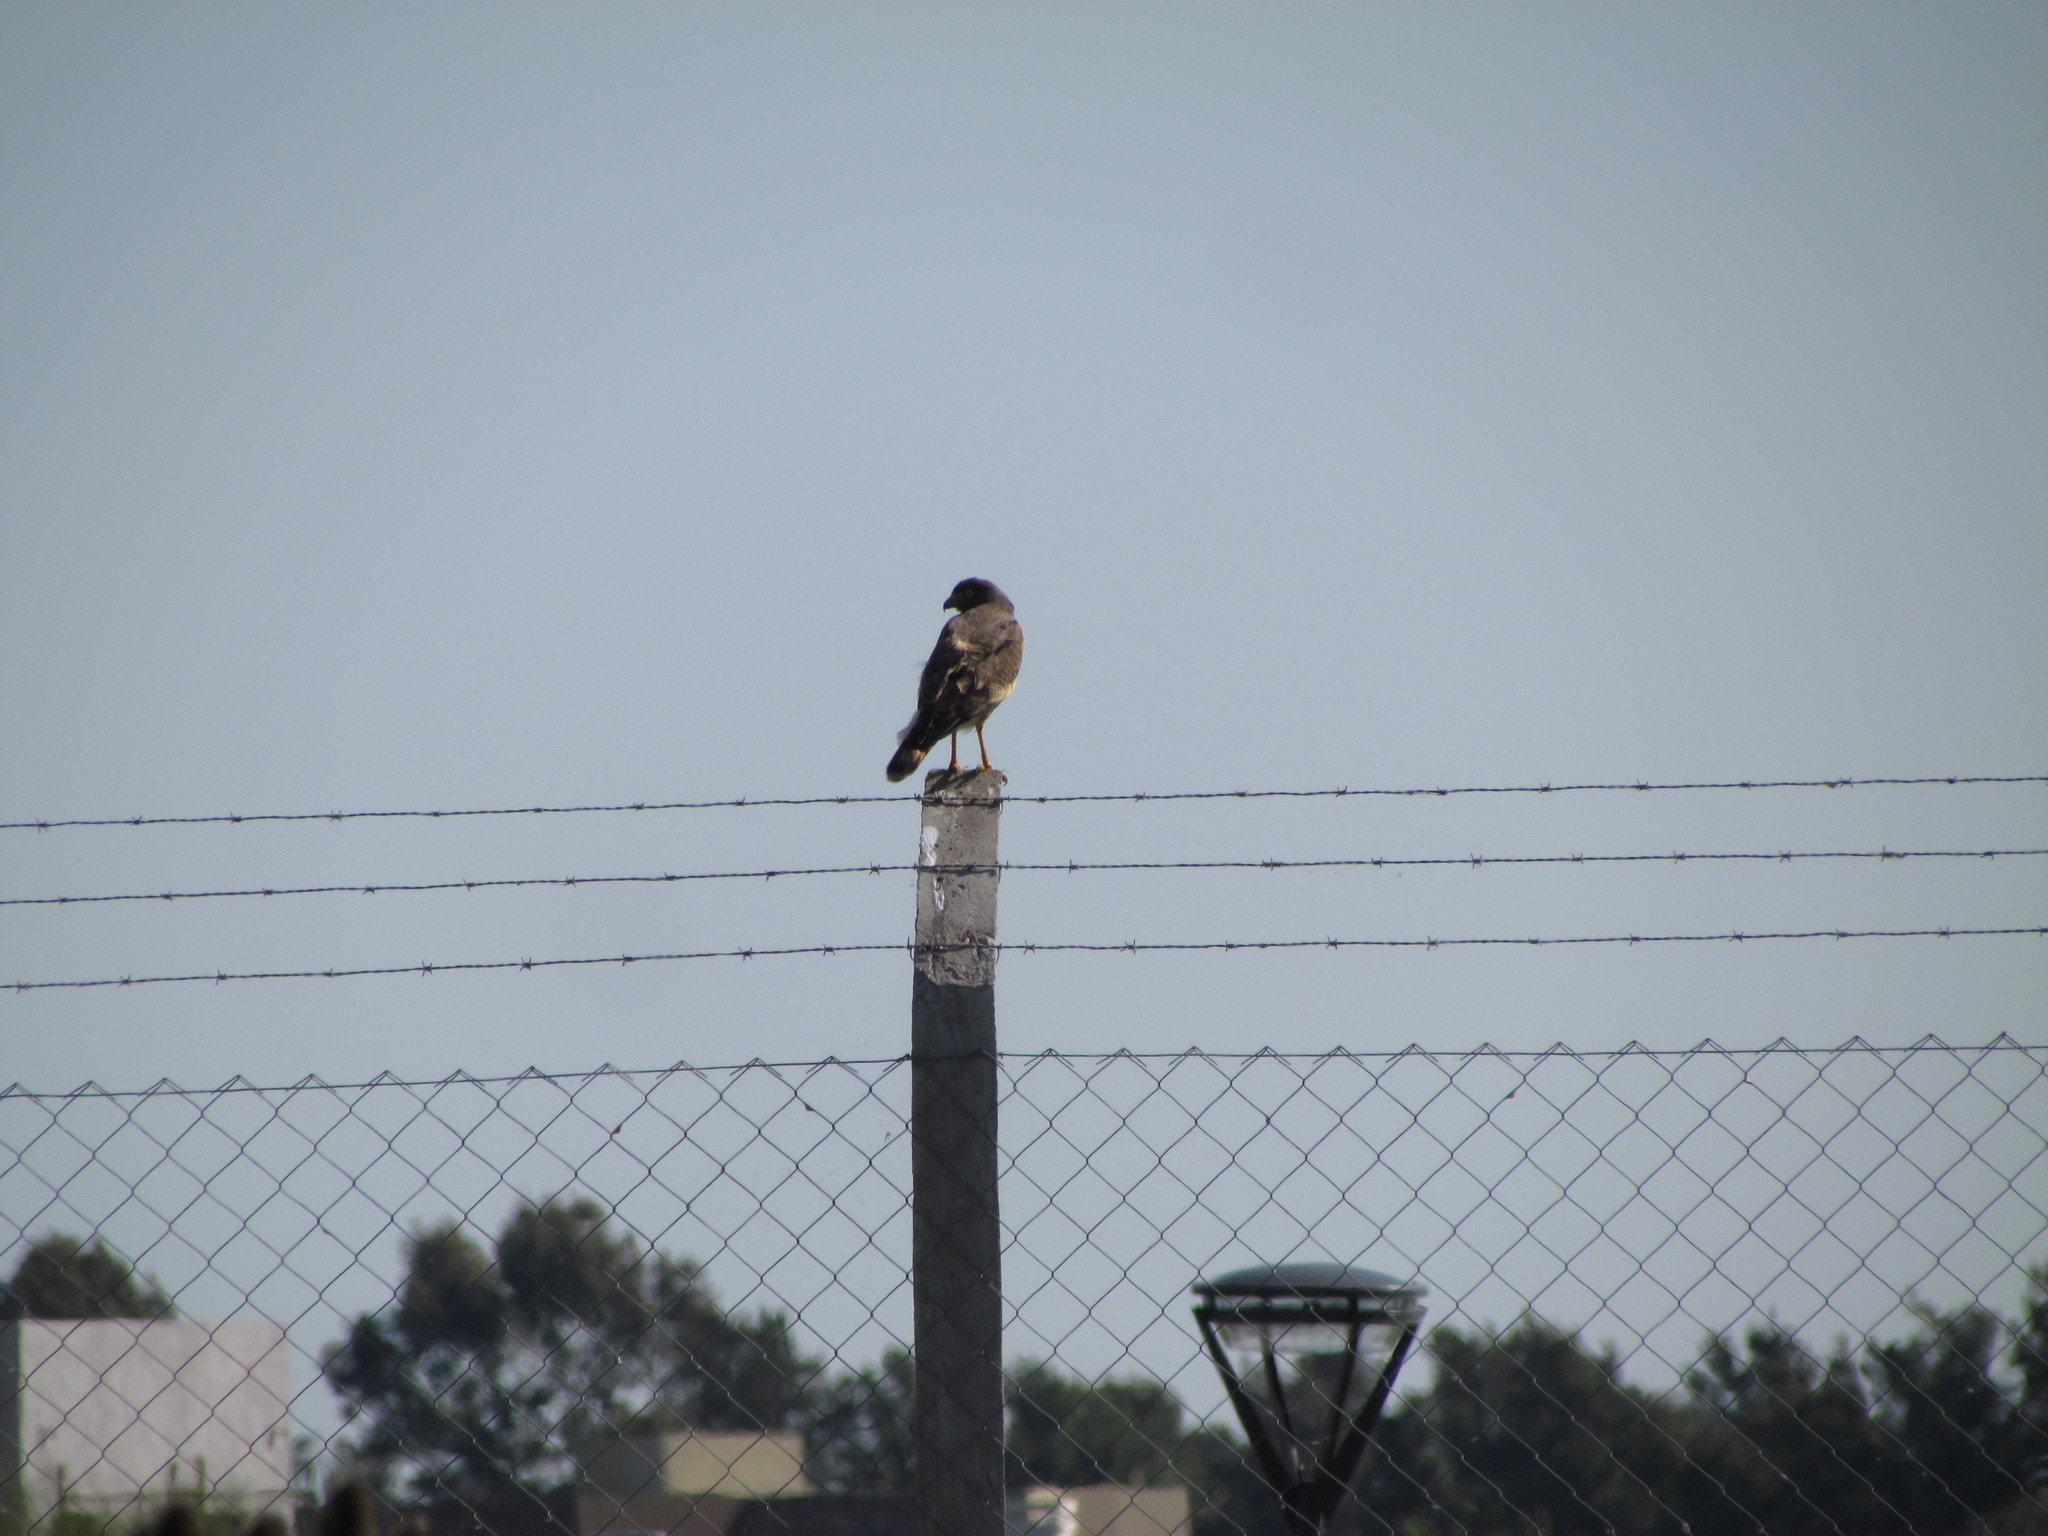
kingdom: Animalia
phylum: Chordata
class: Aves
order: Accipitriformes
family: Accipitridae
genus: Rupornis
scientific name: Rupornis magnirostris
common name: Roadside hawk
